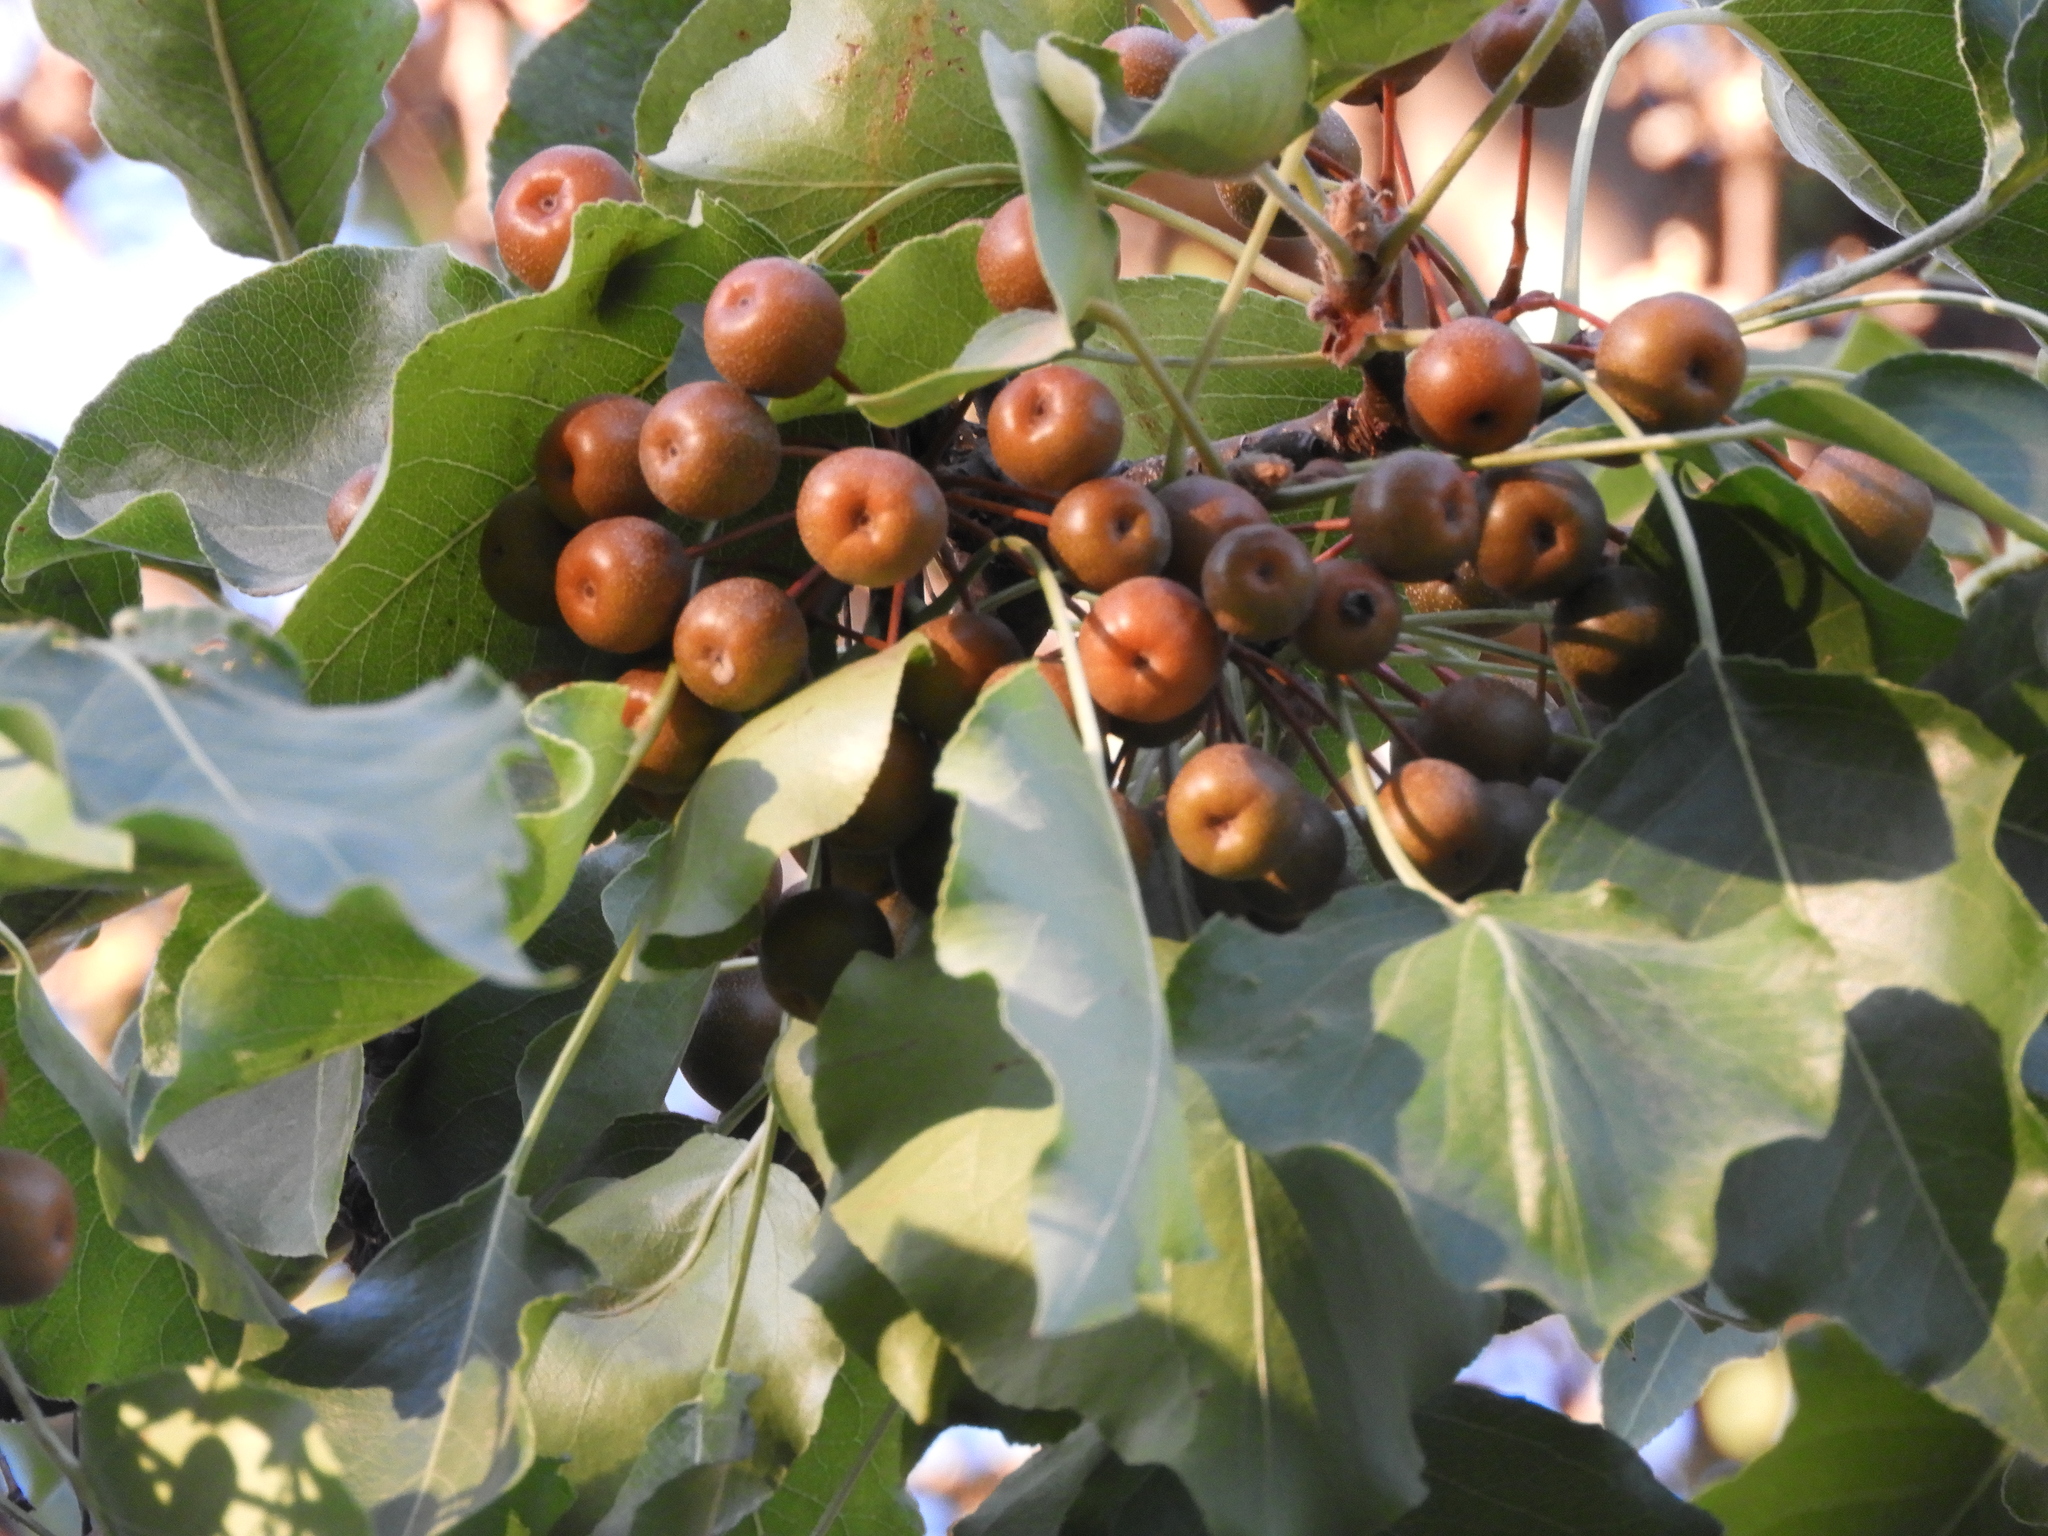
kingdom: Plantae
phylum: Tracheophyta
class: Magnoliopsida
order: Rosales
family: Rosaceae
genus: Pyrus
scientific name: Pyrus calleryana
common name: Callery pear
